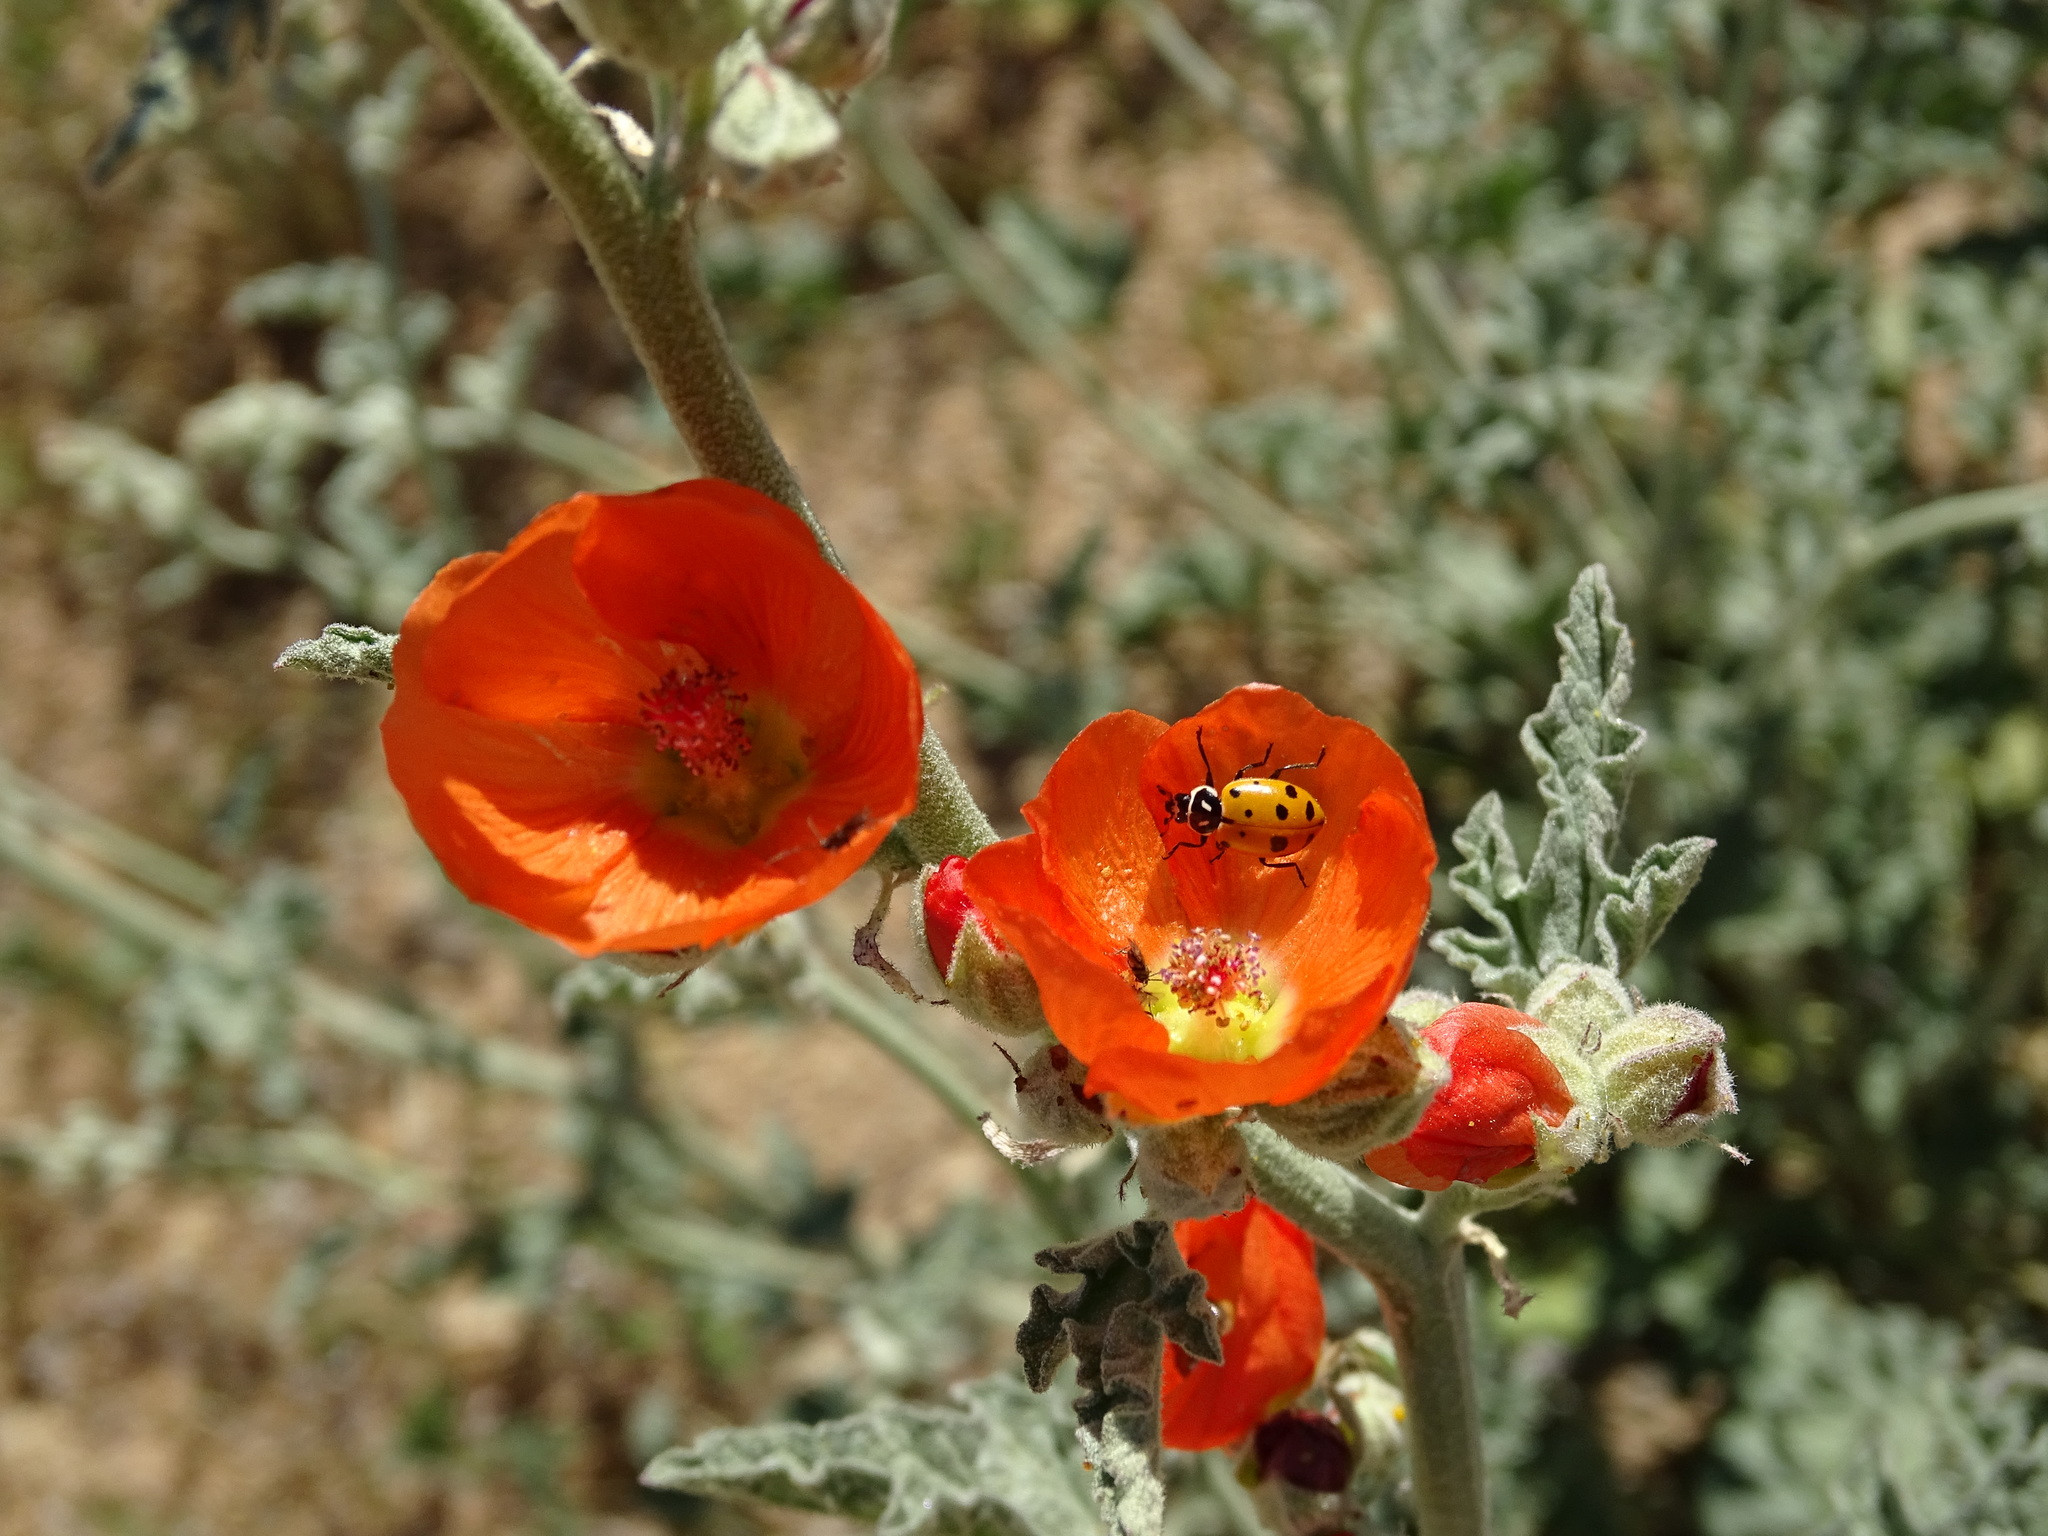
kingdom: Animalia
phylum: Arthropoda
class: Insecta
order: Coleoptera
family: Coccinellidae
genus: Hippodamia
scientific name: Hippodamia convergens
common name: Convergent lady beetle
